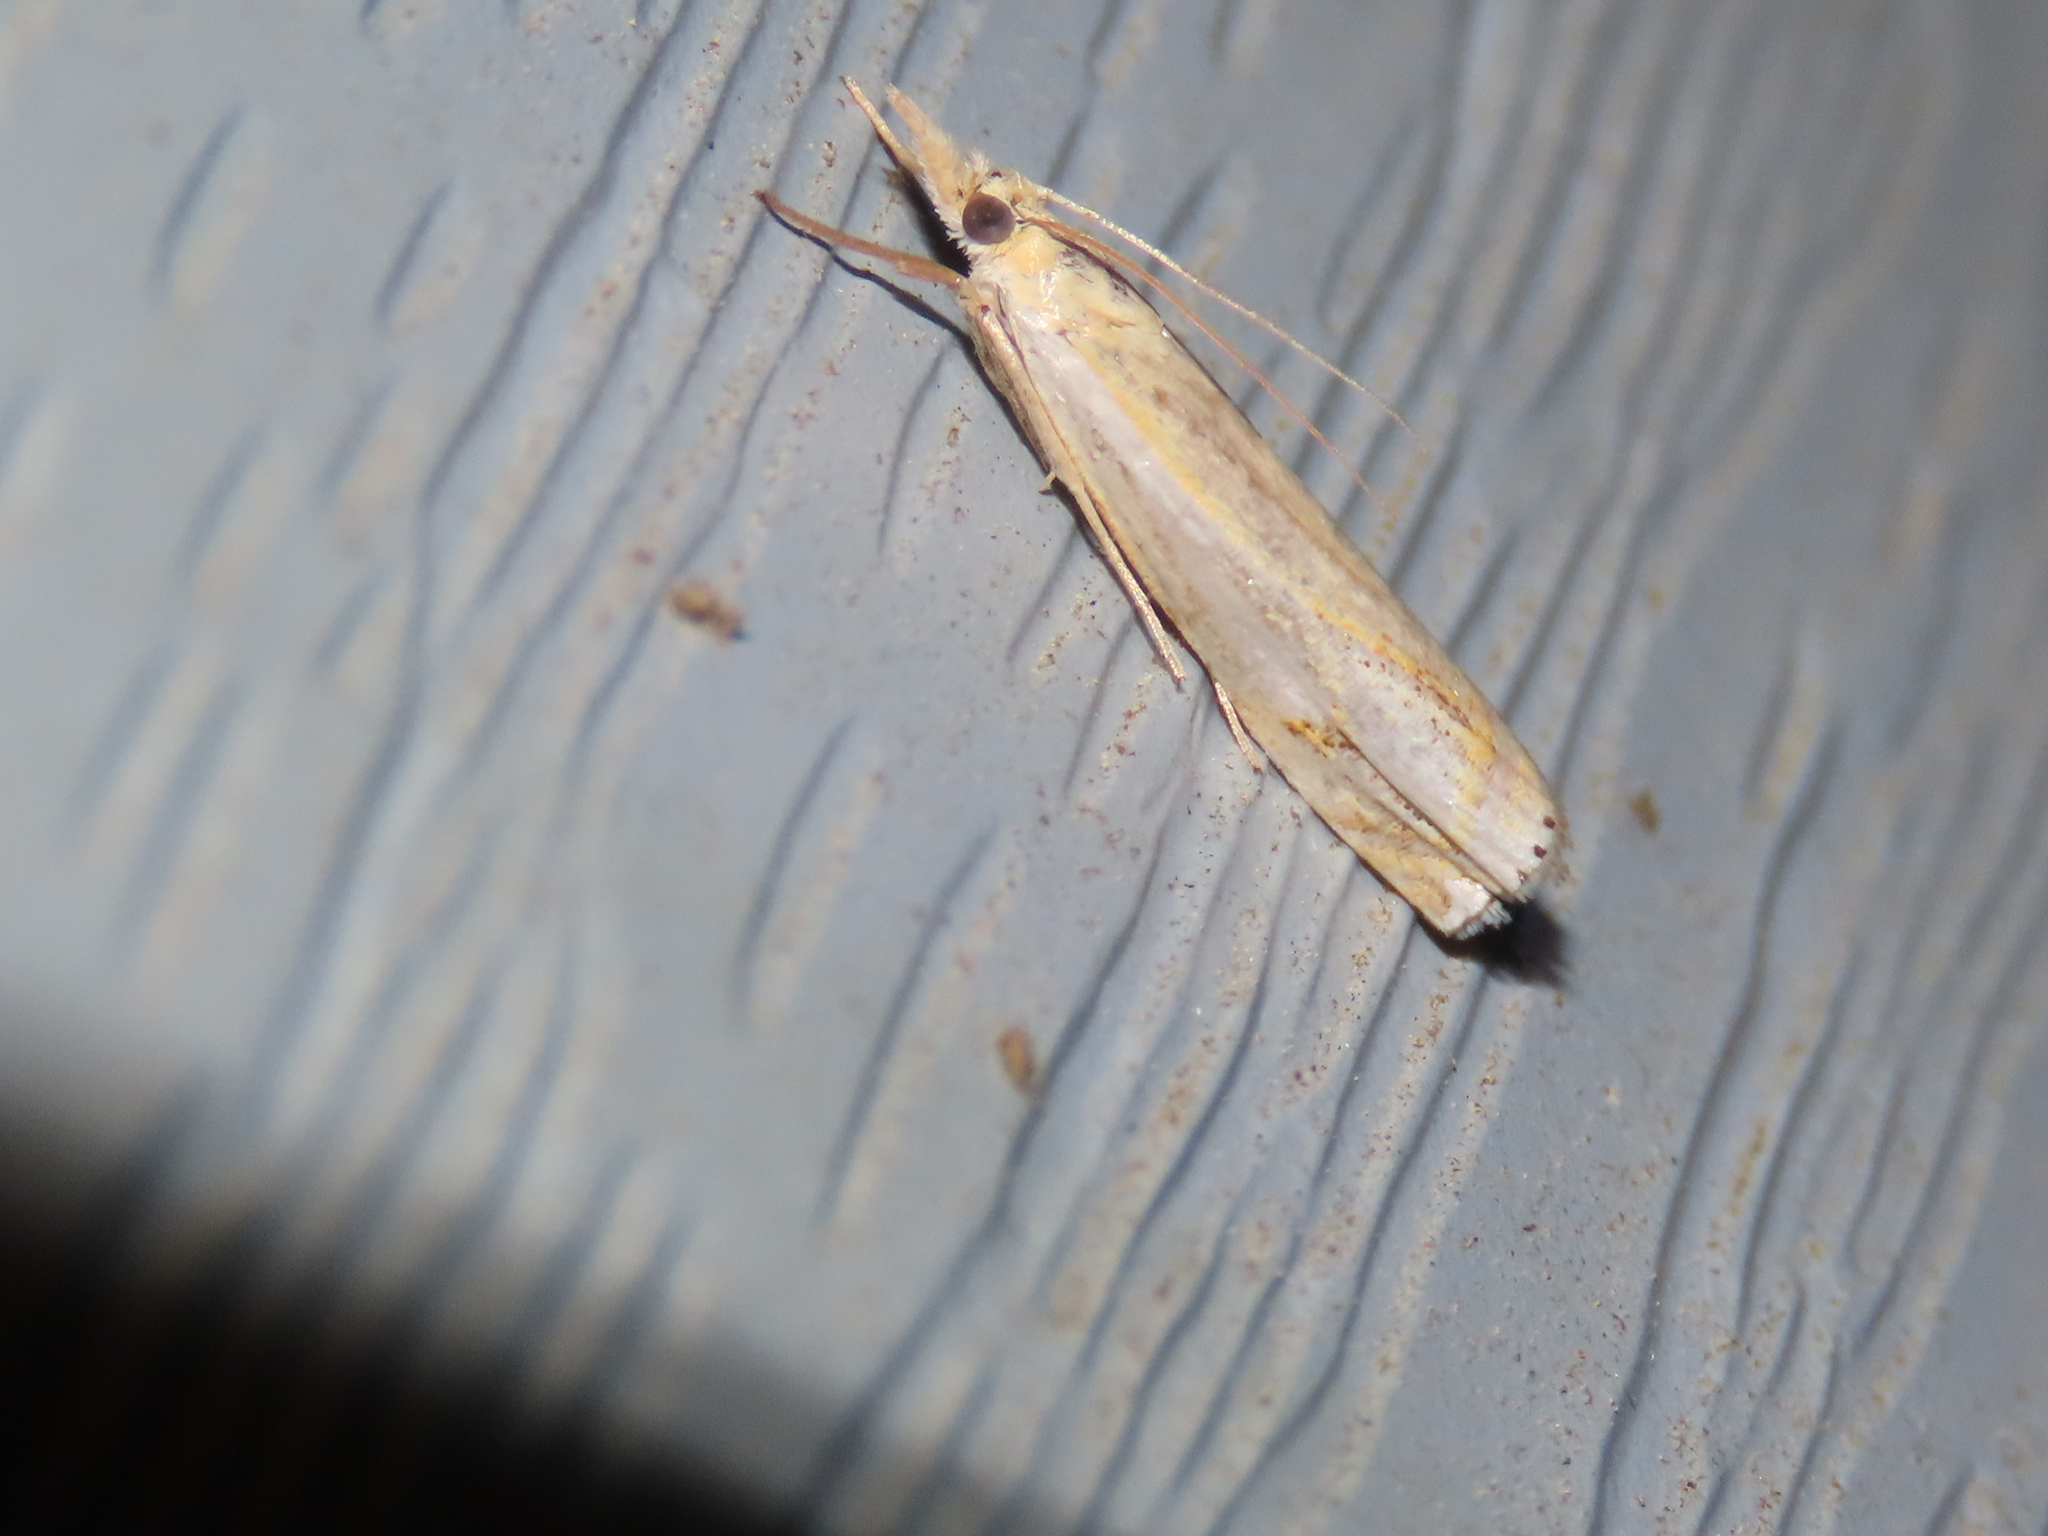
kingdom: Animalia
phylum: Arthropoda
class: Insecta
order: Lepidoptera
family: Crambidae
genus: Crambus
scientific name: Crambus agitatellus
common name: Double-banded grass-veneer
